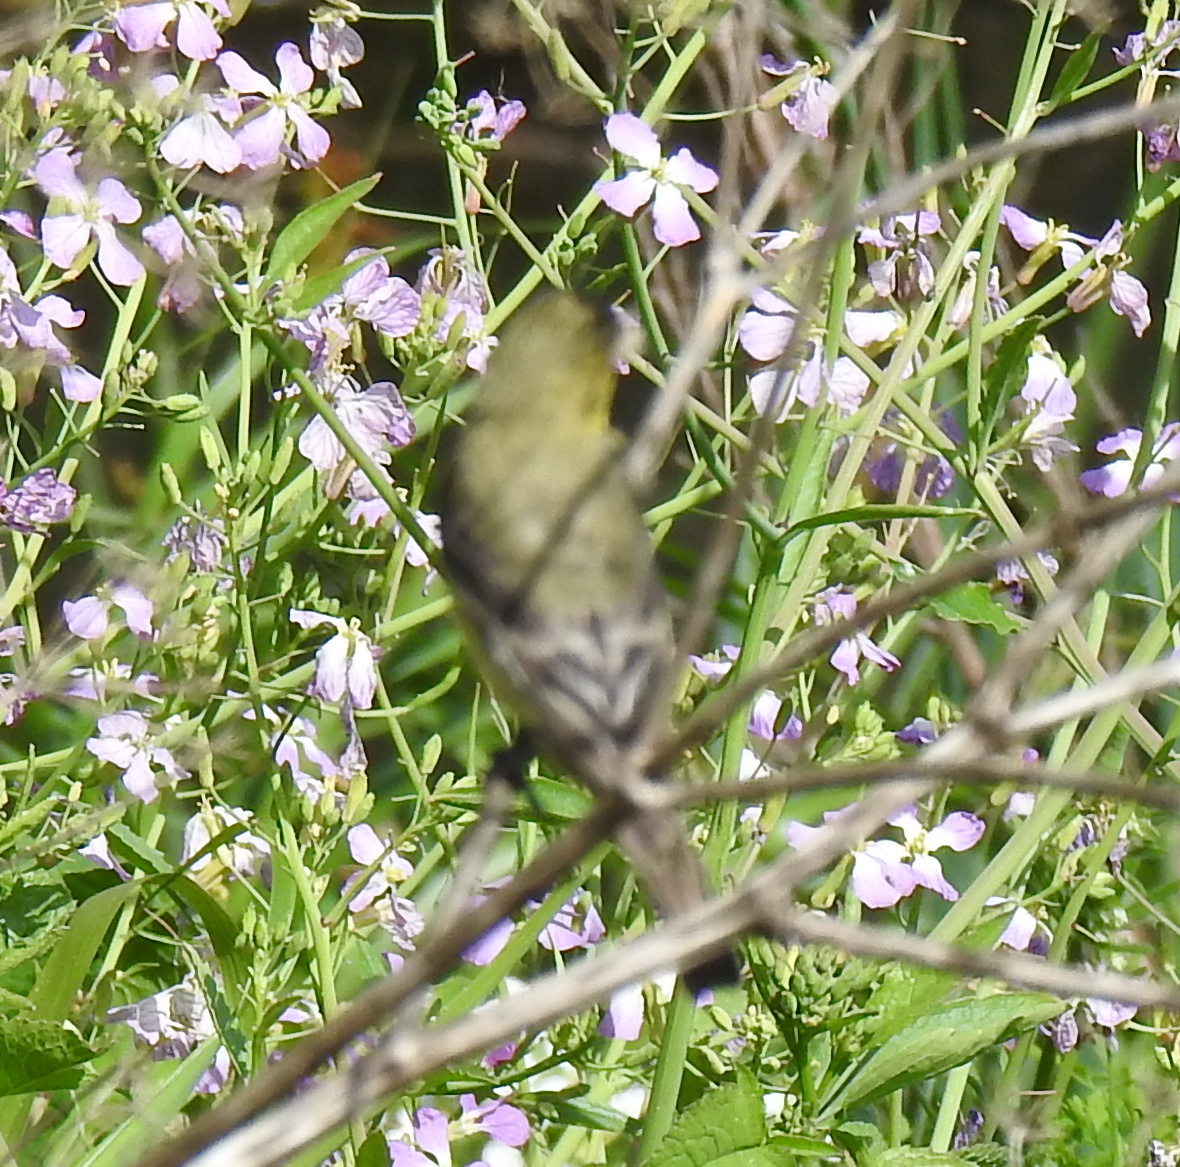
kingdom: Animalia
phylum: Chordata
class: Aves
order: Passeriformes
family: Fringillidae
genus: Spinus
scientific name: Spinus psaltria
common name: Lesser goldfinch
